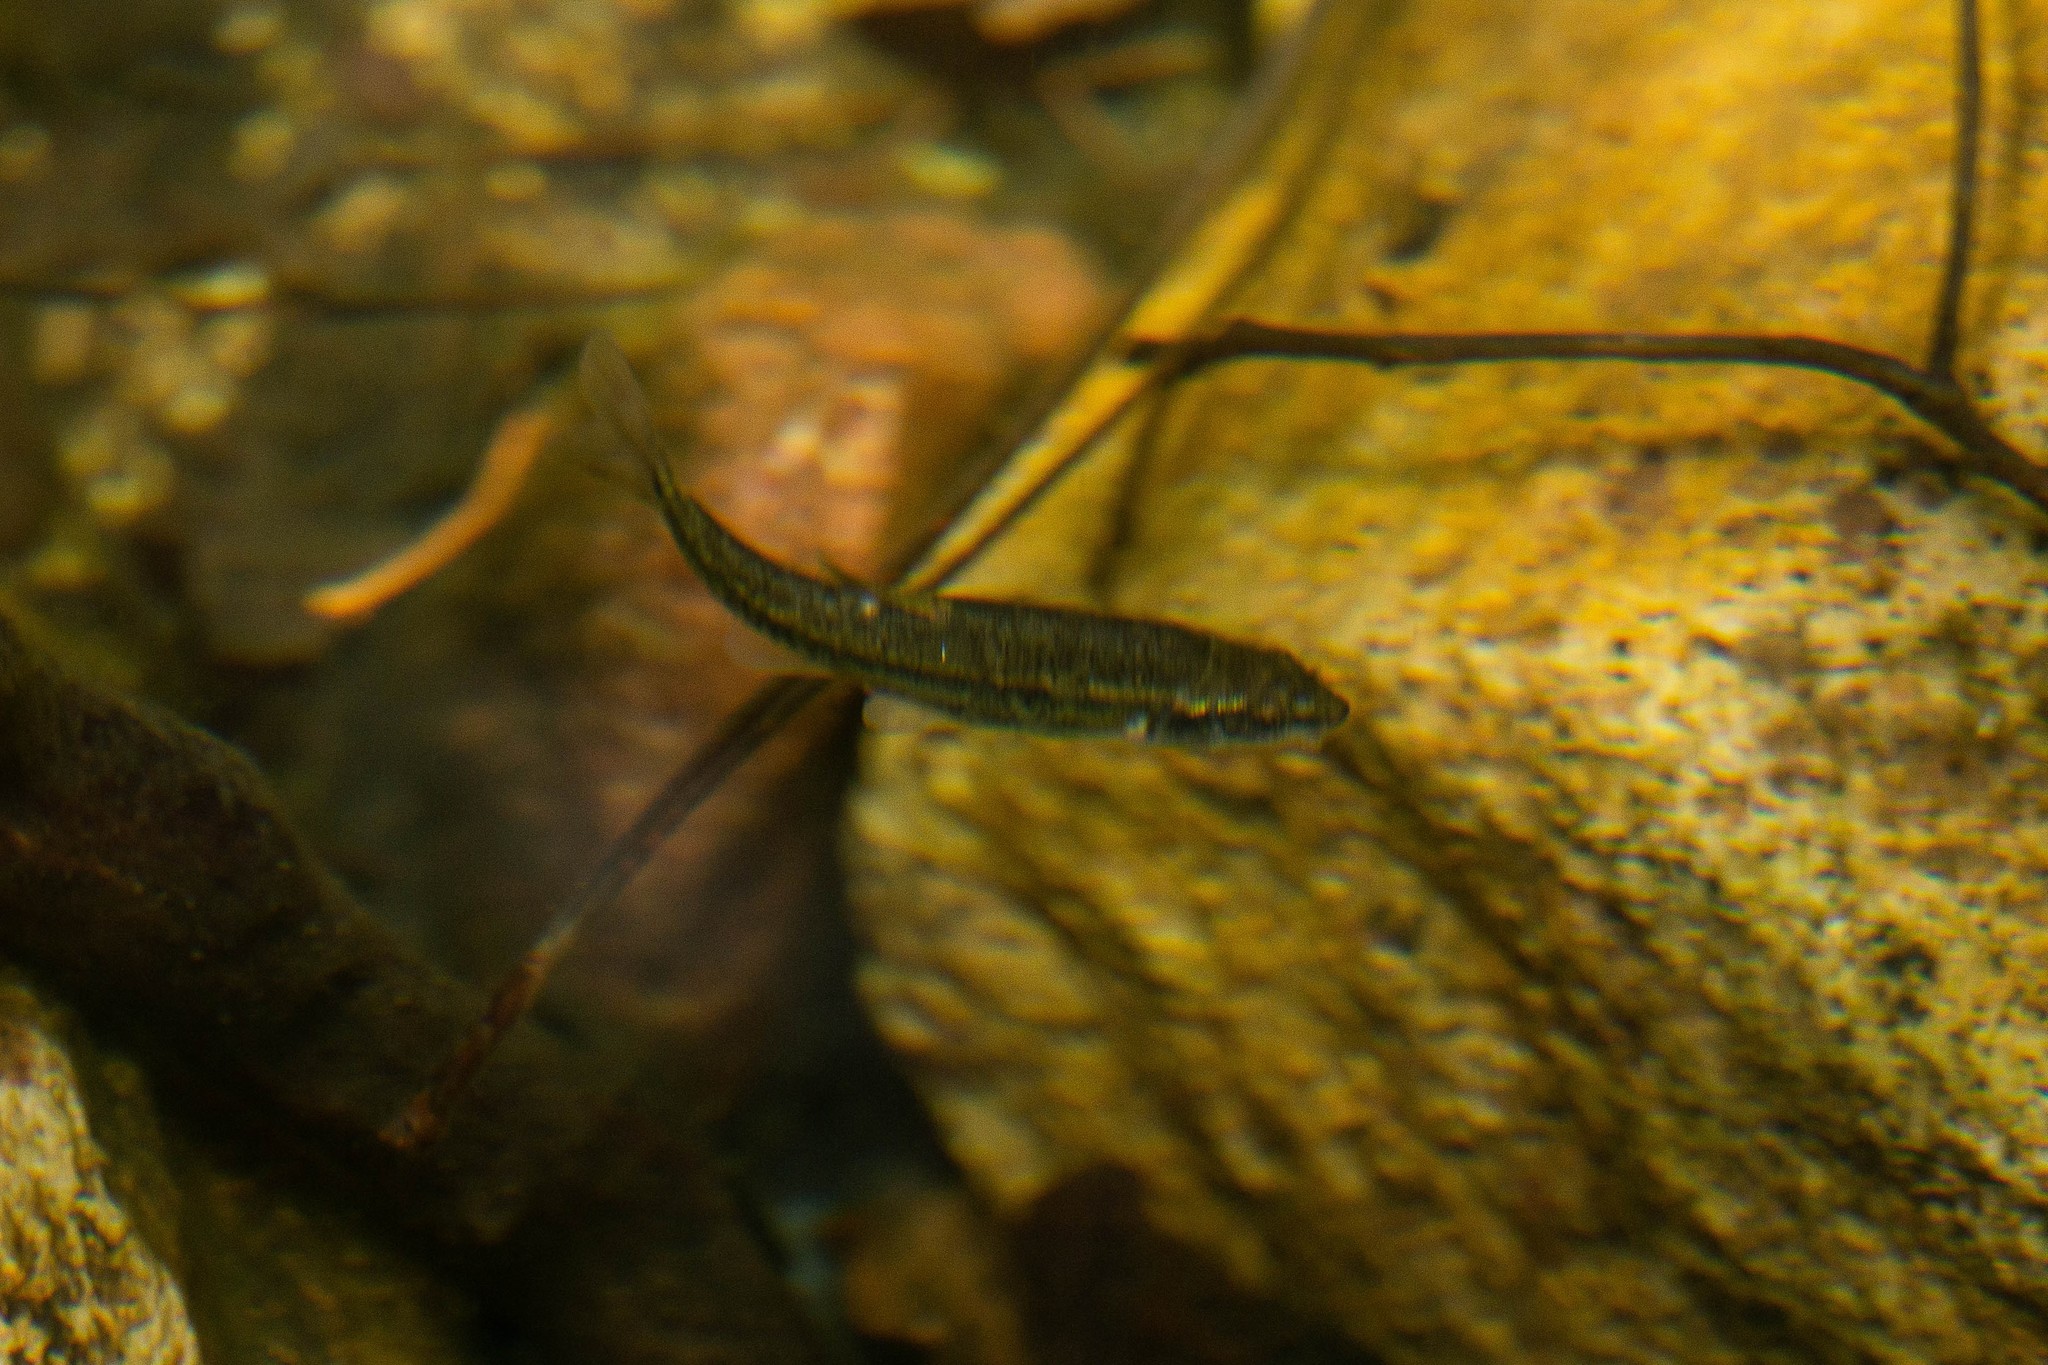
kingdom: Animalia
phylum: Chordata
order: Cypriniformes
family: Cyprinidae
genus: Rhinichthys
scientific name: Rhinichthys osculus
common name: Speckled dace
